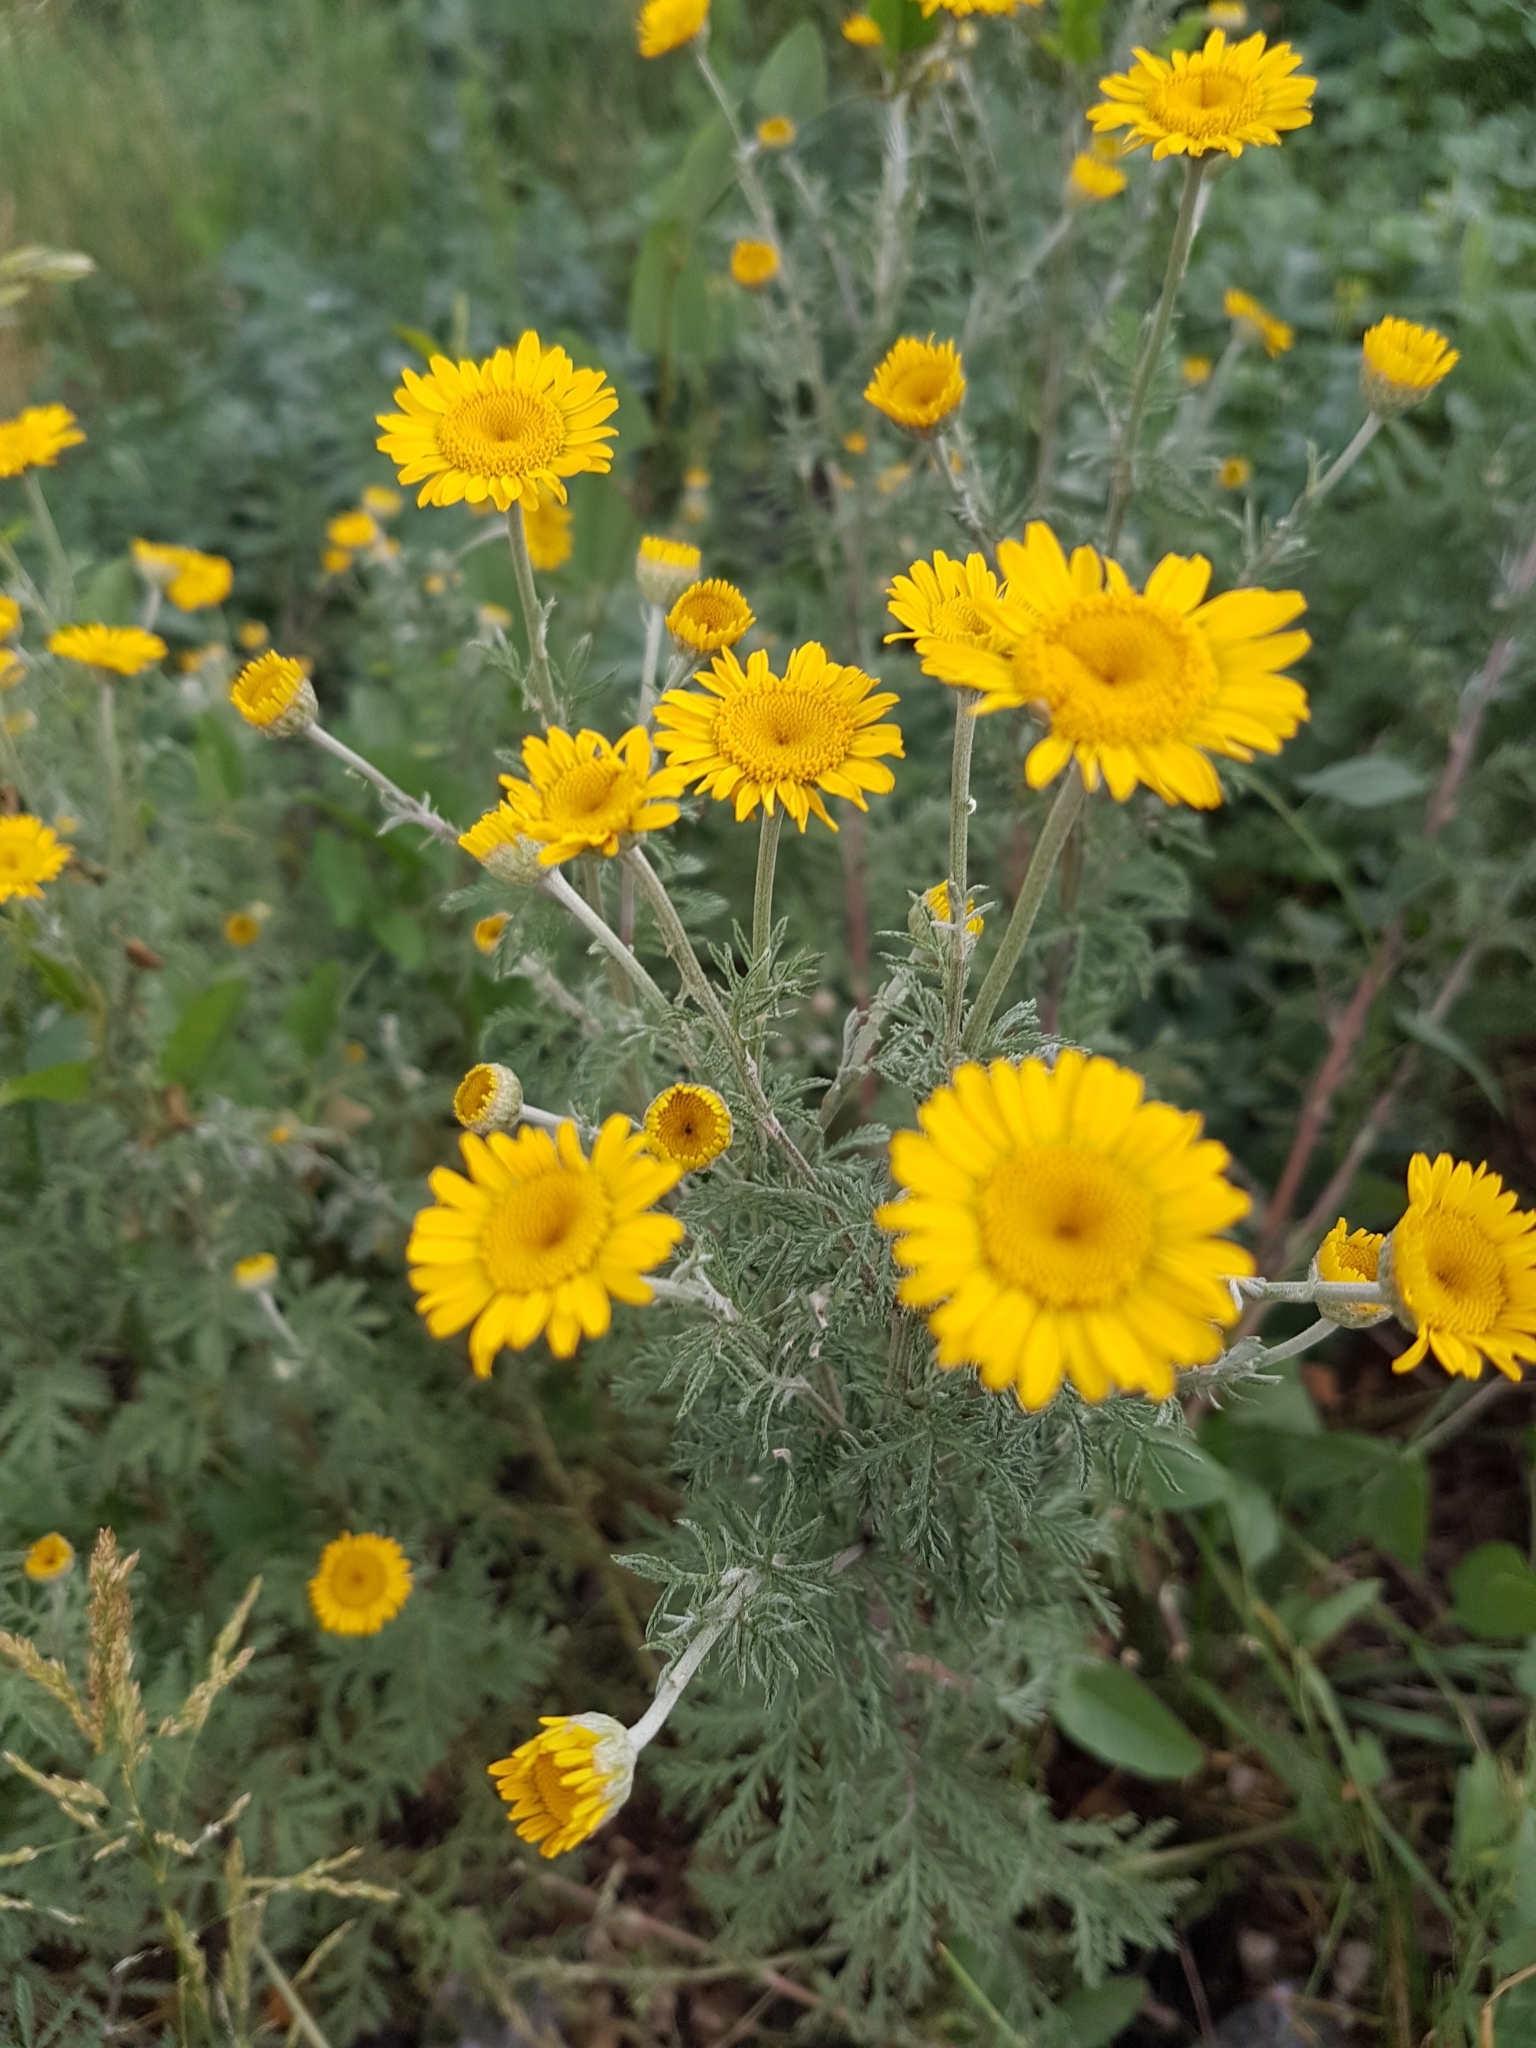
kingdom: Plantae
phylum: Tracheophyta
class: Magnoliopsida
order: Asterales
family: Asteraceae
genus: Cota
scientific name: Cota tinctoria
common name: Golden chamomile
